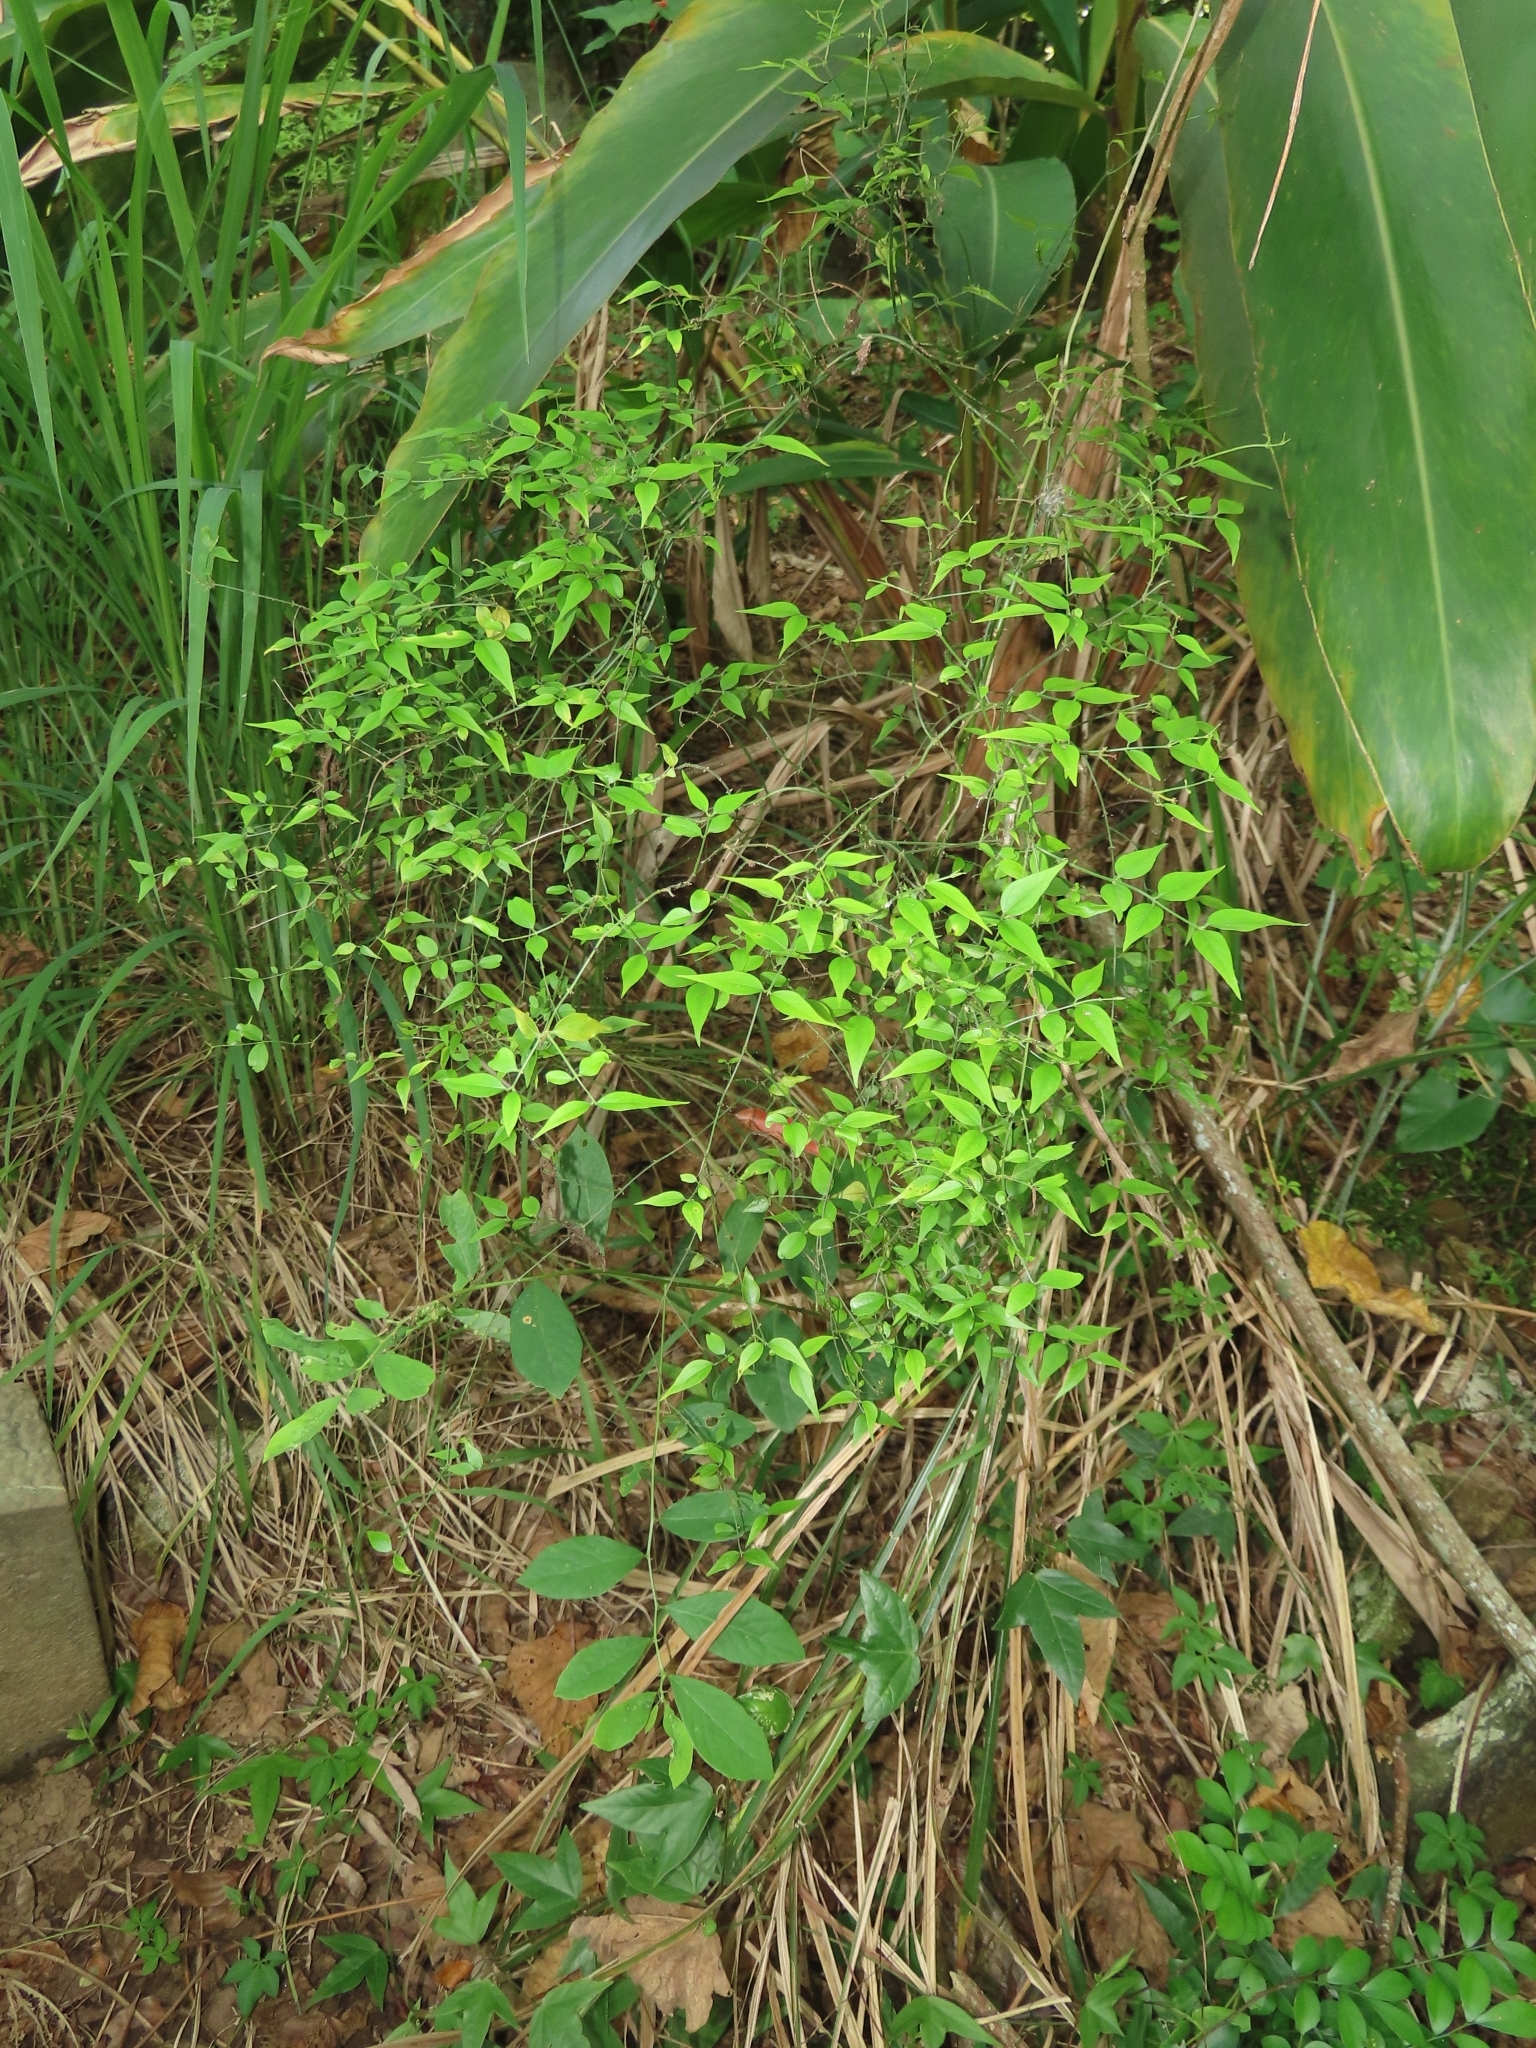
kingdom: Plantae
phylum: Tracheophyta
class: Magnoliopsida
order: Lamiales
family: Oleaceae
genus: Jasminum
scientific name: Jasminum nervosum
